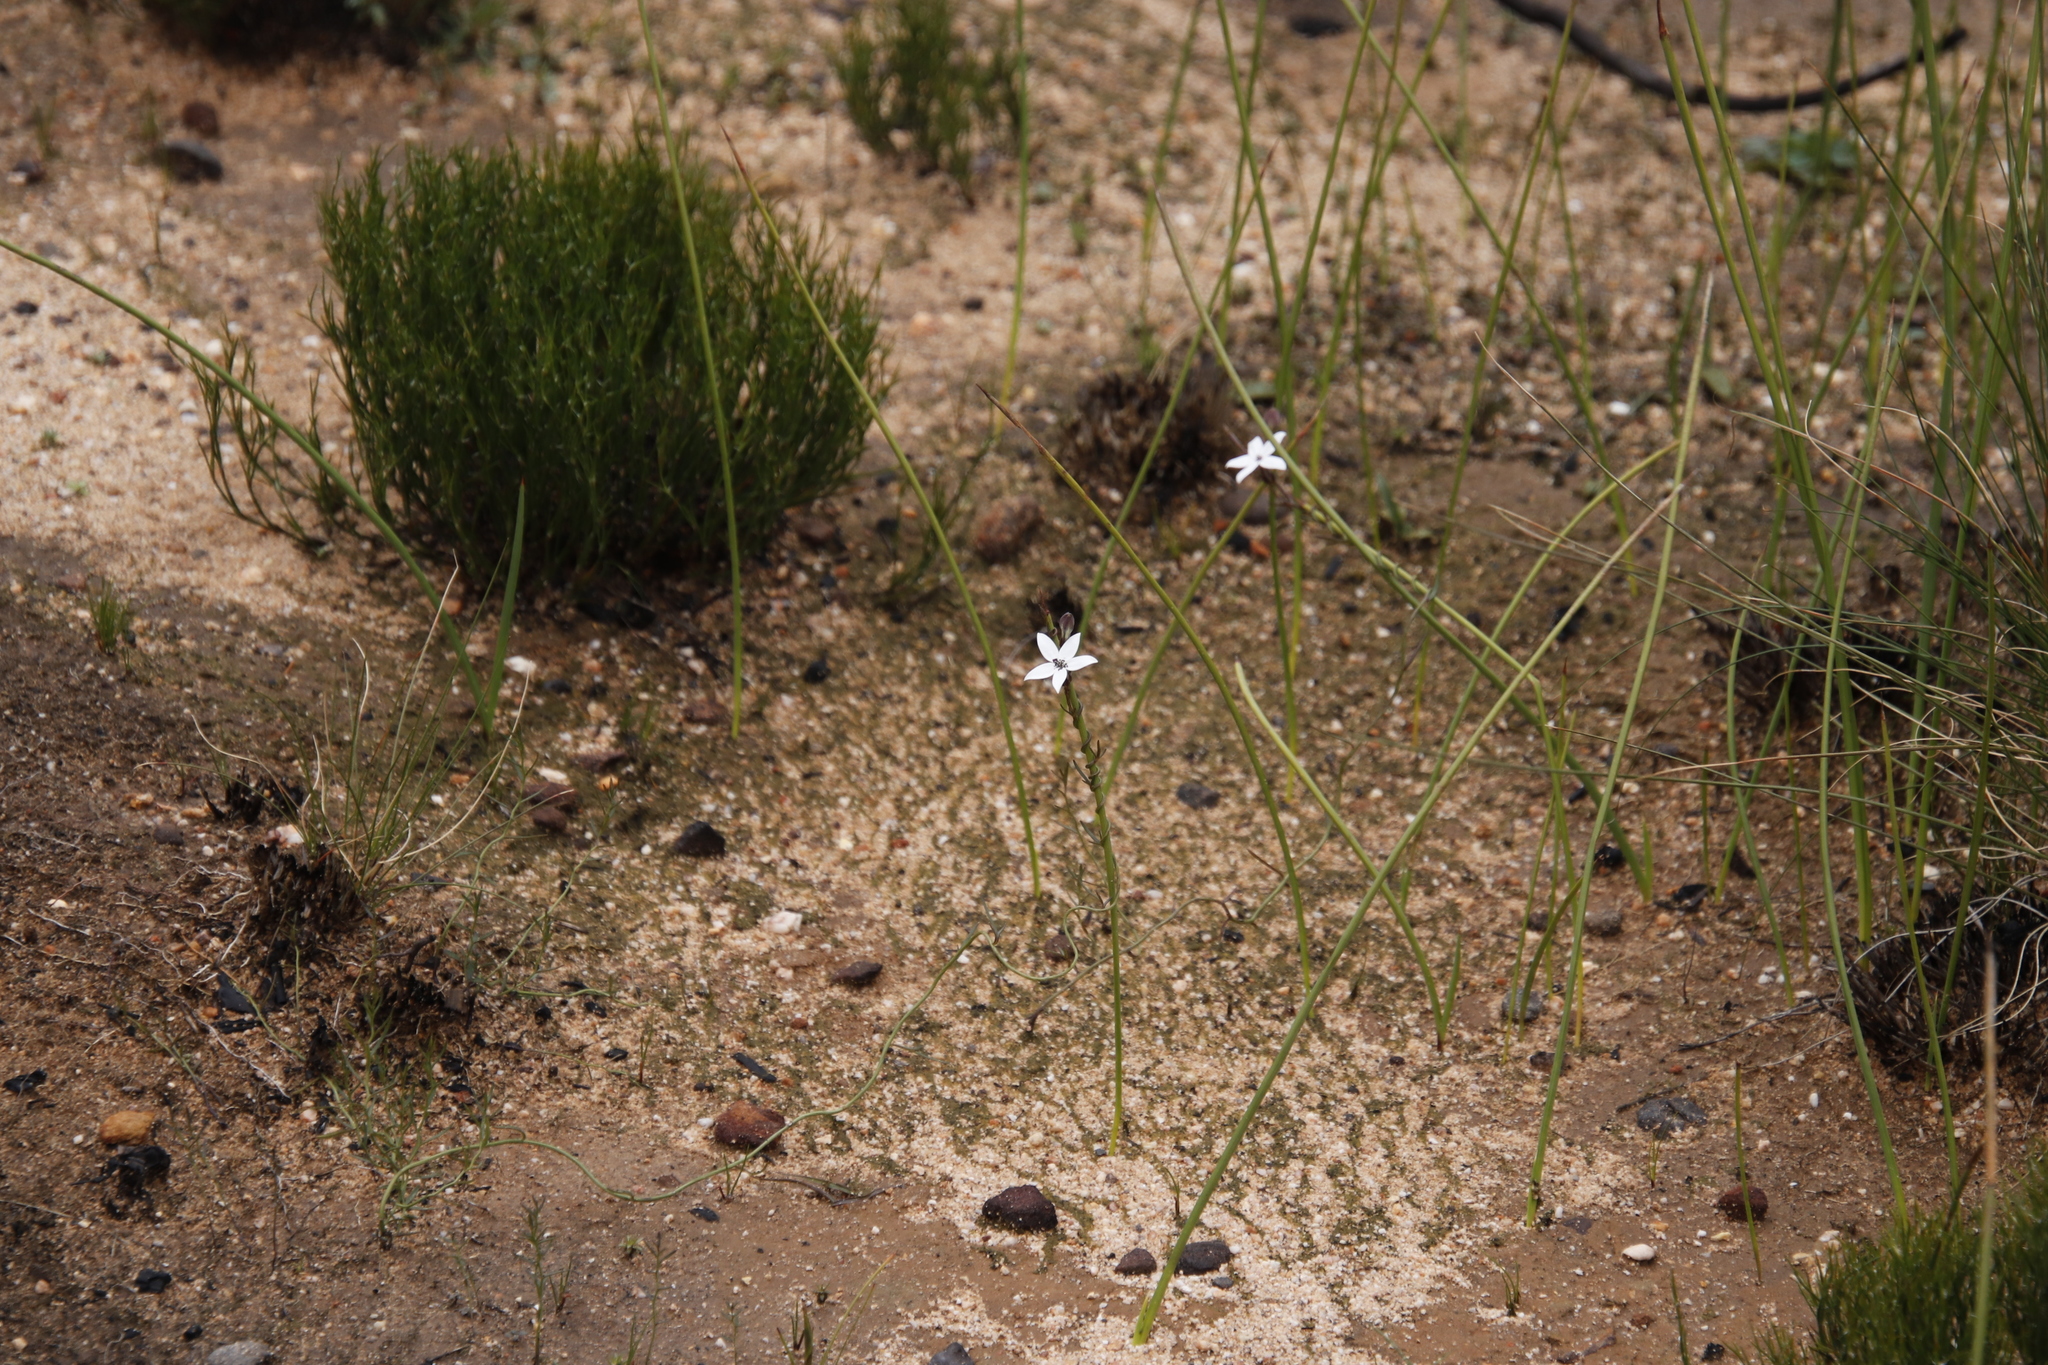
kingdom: Plantae
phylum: Tracheophyta
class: Magnoliopsida
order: Asterales
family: Campanulaceae
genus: Cyphia
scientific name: Cyphia volubilis
